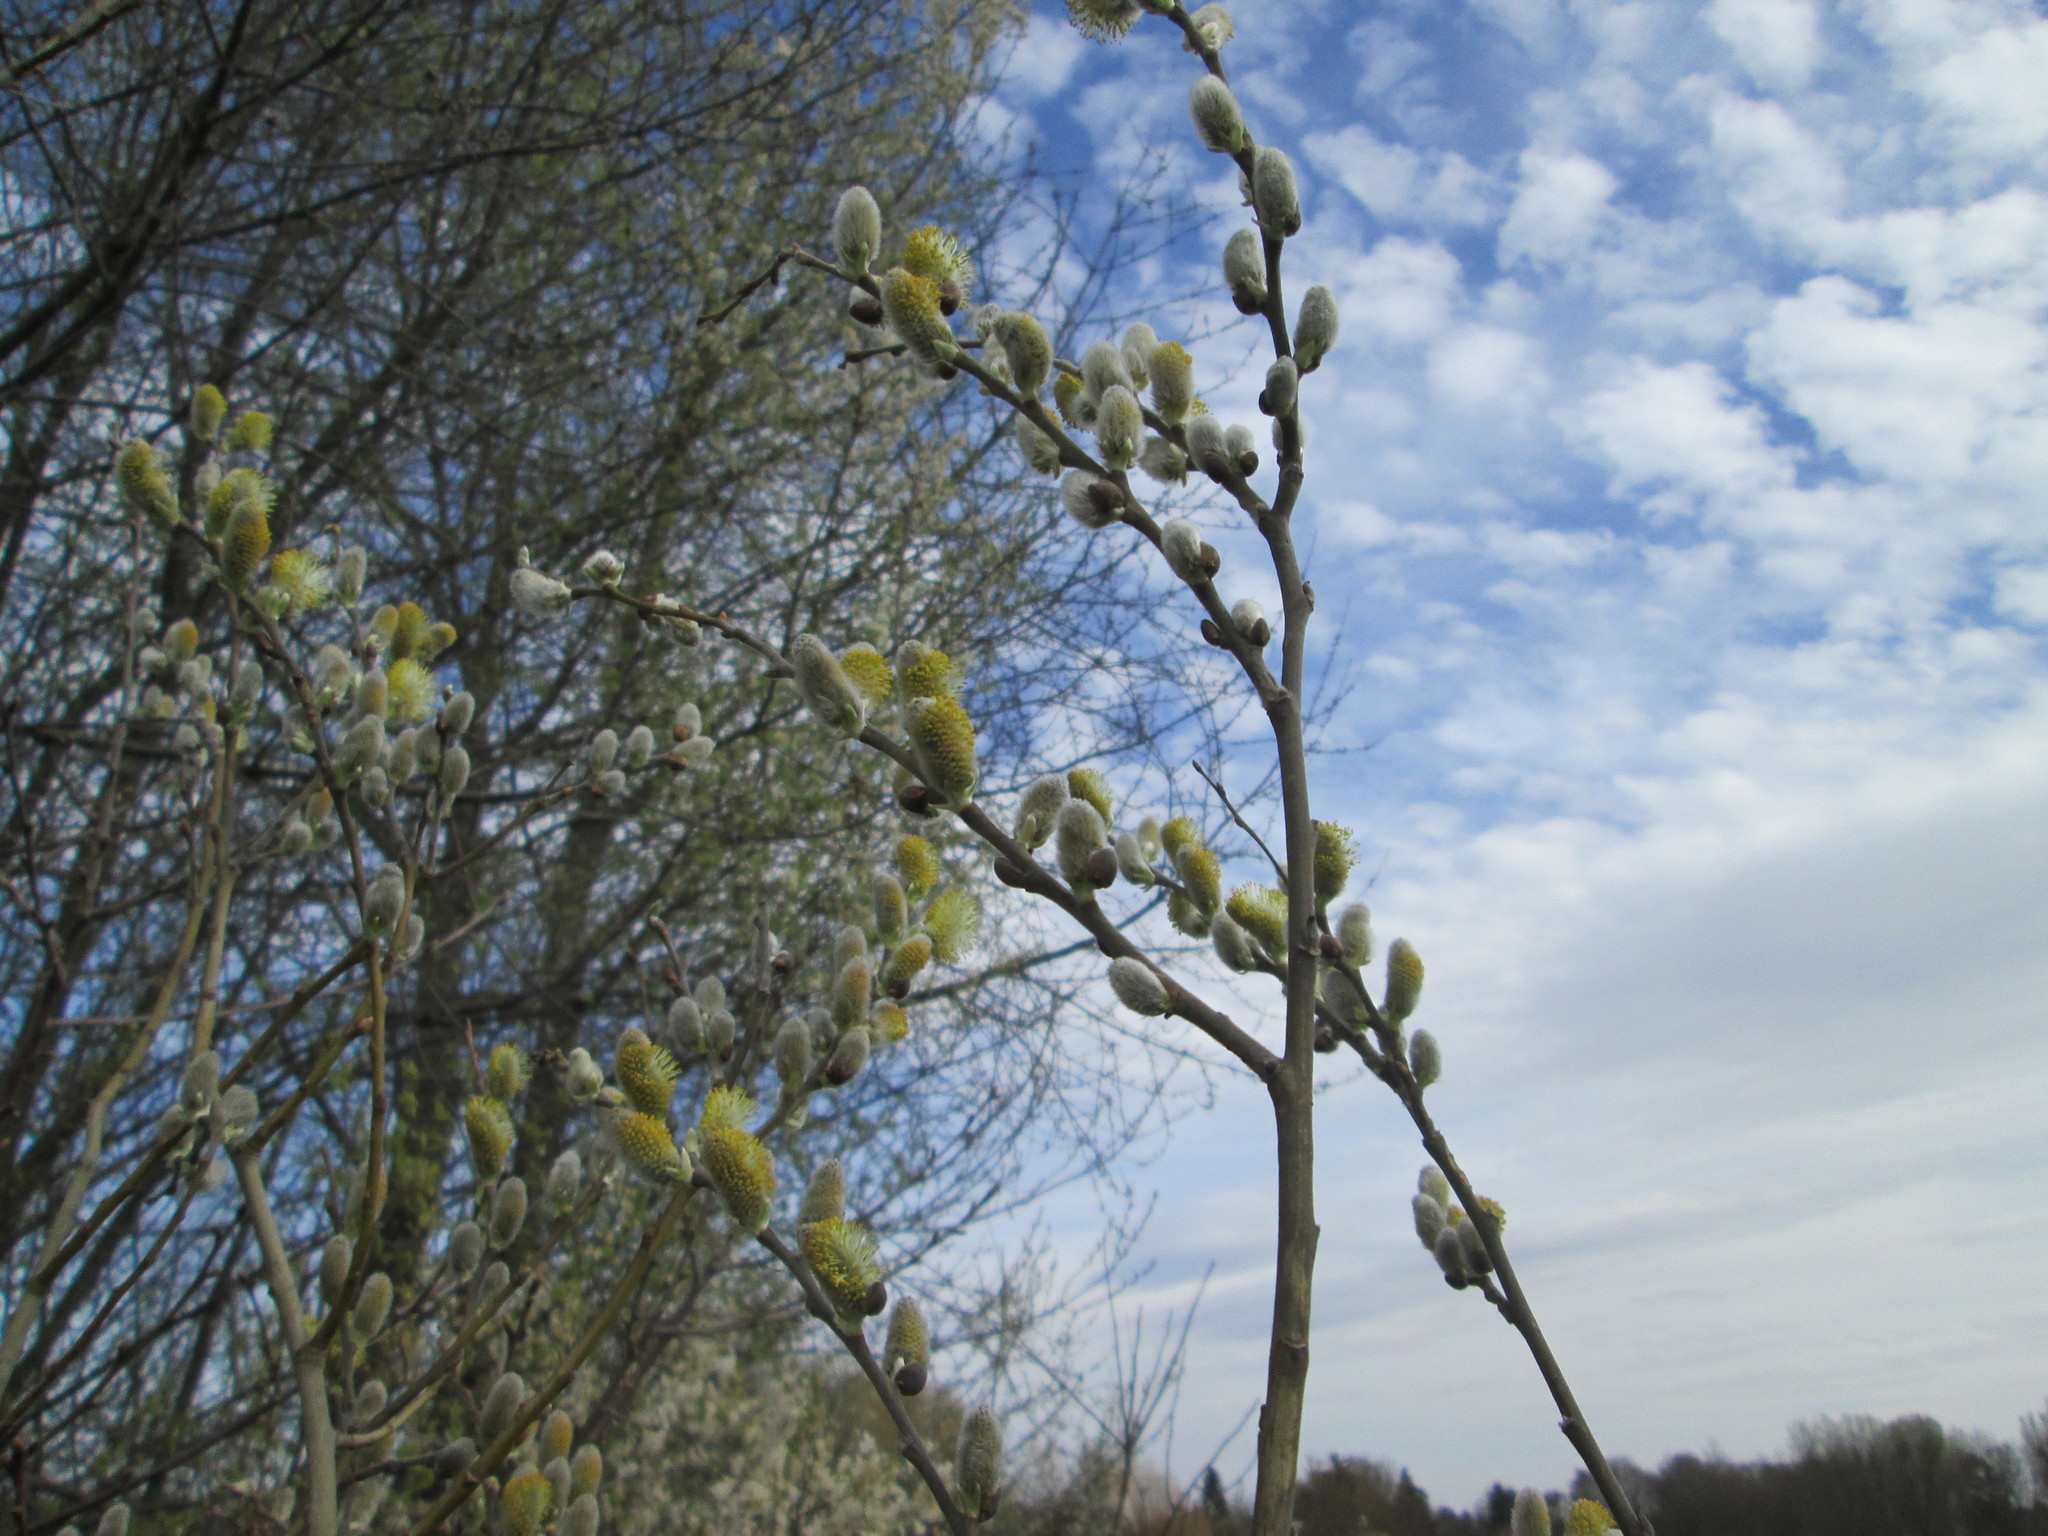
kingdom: Plantae
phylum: Tracheophyta
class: Magnoliopsida
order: Malpighiales
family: Salicaceae
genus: Salix
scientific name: Salix caprea
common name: Goat willow
